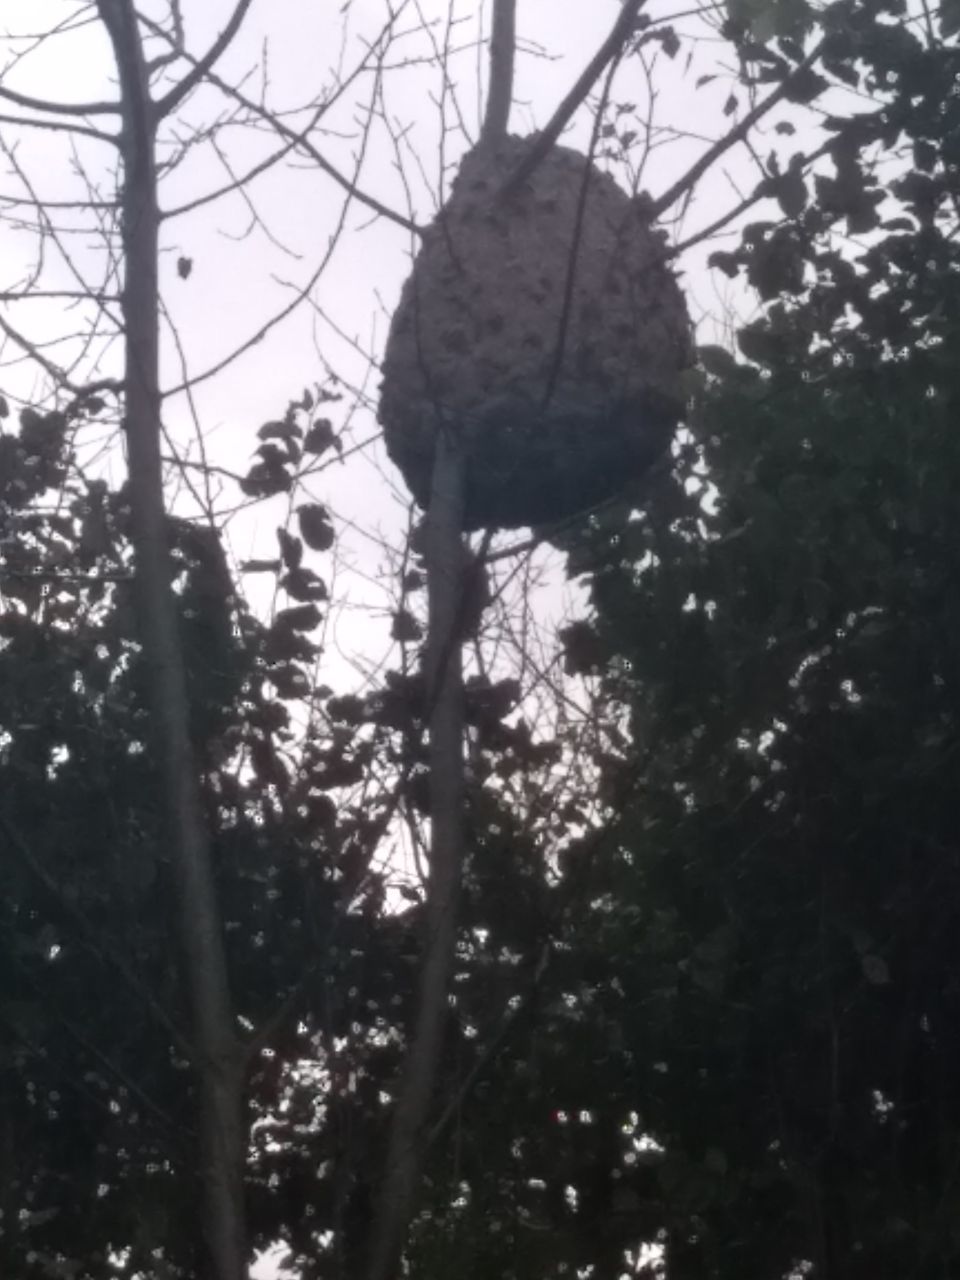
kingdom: Animalia
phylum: Arthropoda
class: Insecta
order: Hymenoptera
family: Vespidae
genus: Vespa
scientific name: Vespa velutina
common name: Asian hornet
